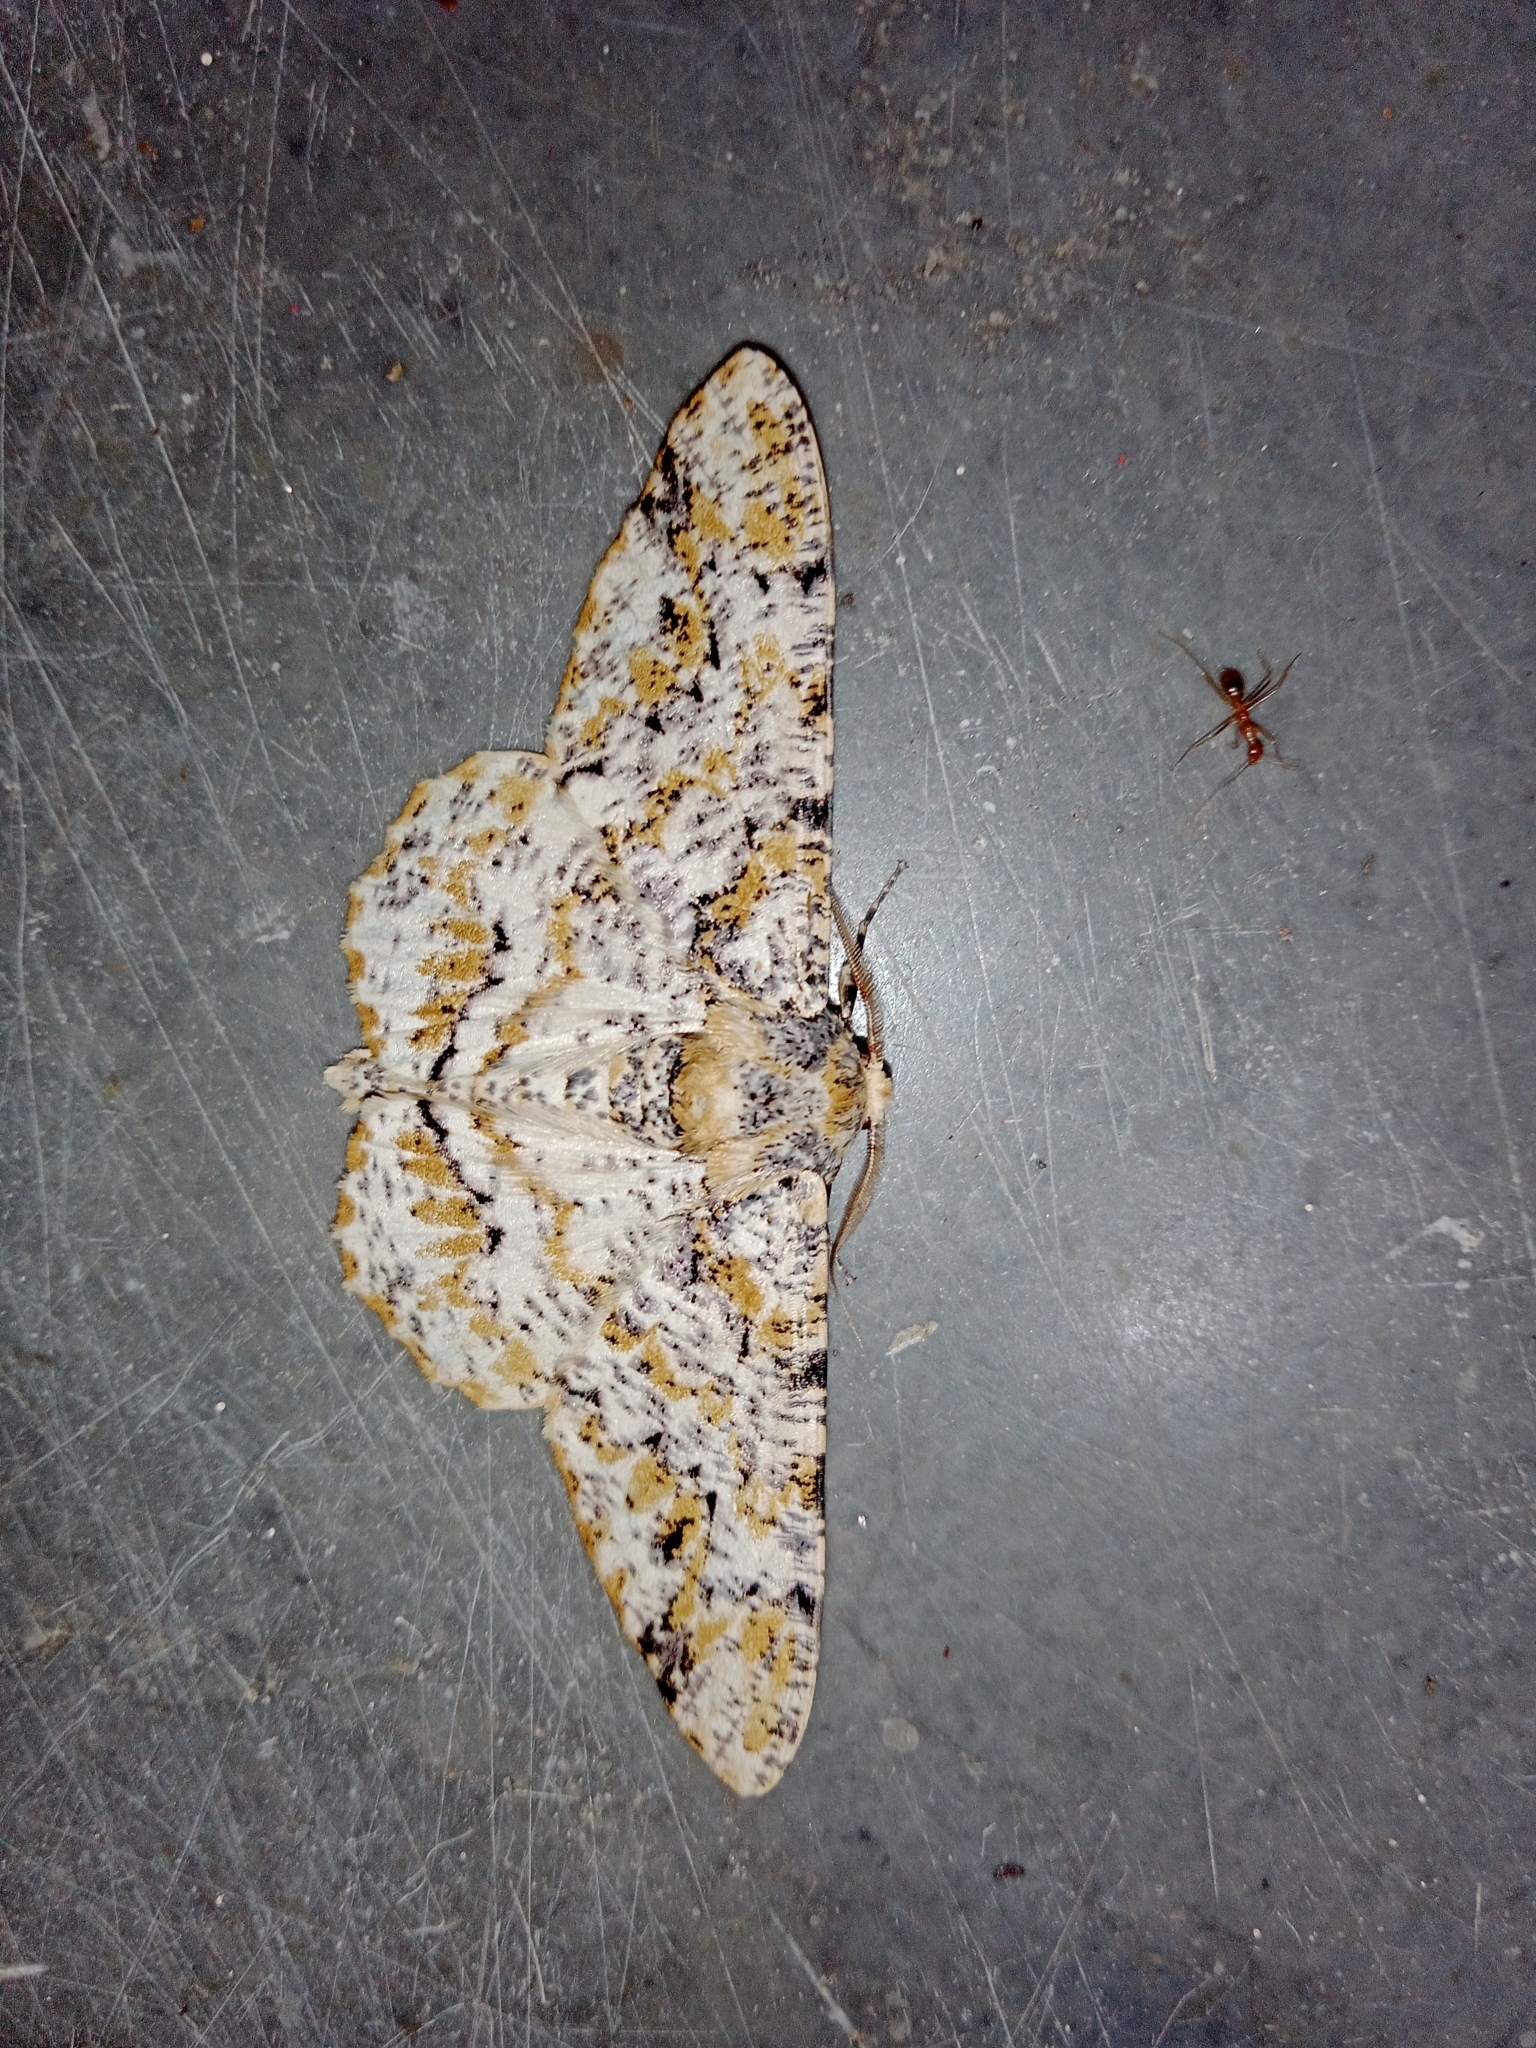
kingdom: Animalia
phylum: Arthropoda
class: Insecta
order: Lepidoptera
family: Geometridae
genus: Biston
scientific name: Biston suppressaria
